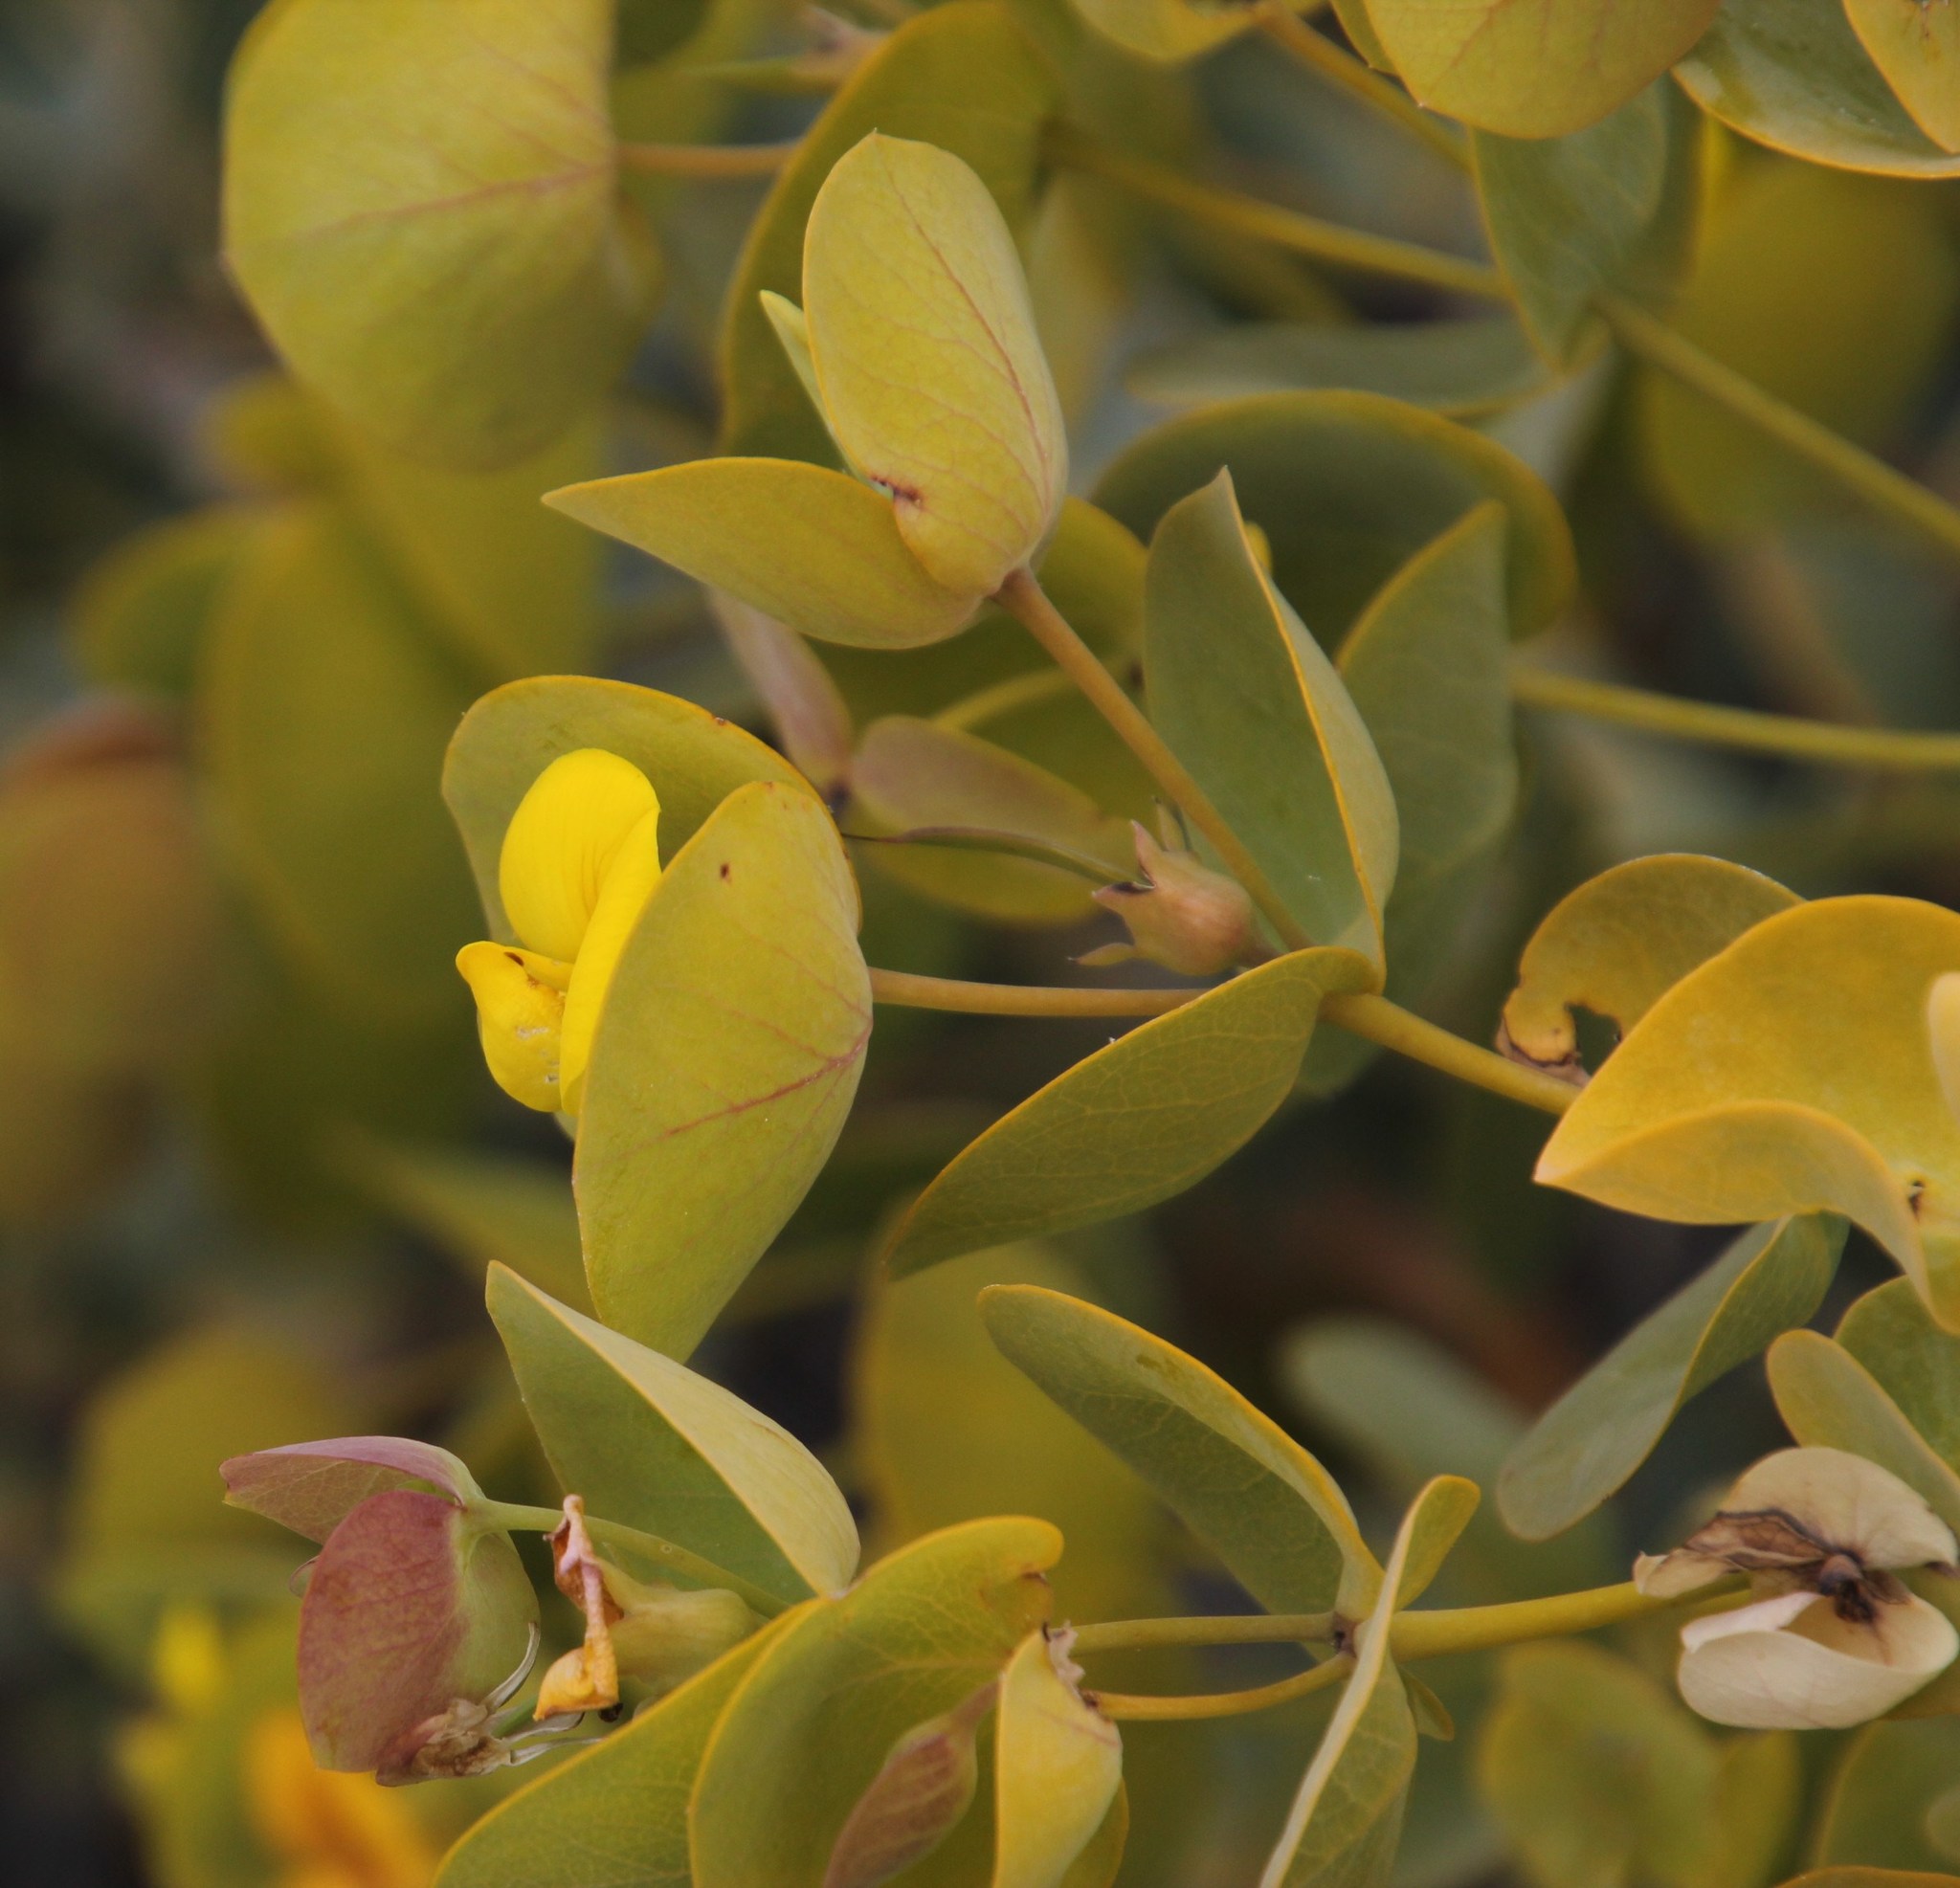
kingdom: Plantae
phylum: Tracheophyta
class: Magnoliopsida
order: Fabales
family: Fabaceae
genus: Rafnia
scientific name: Rafnia amplexicaulis
